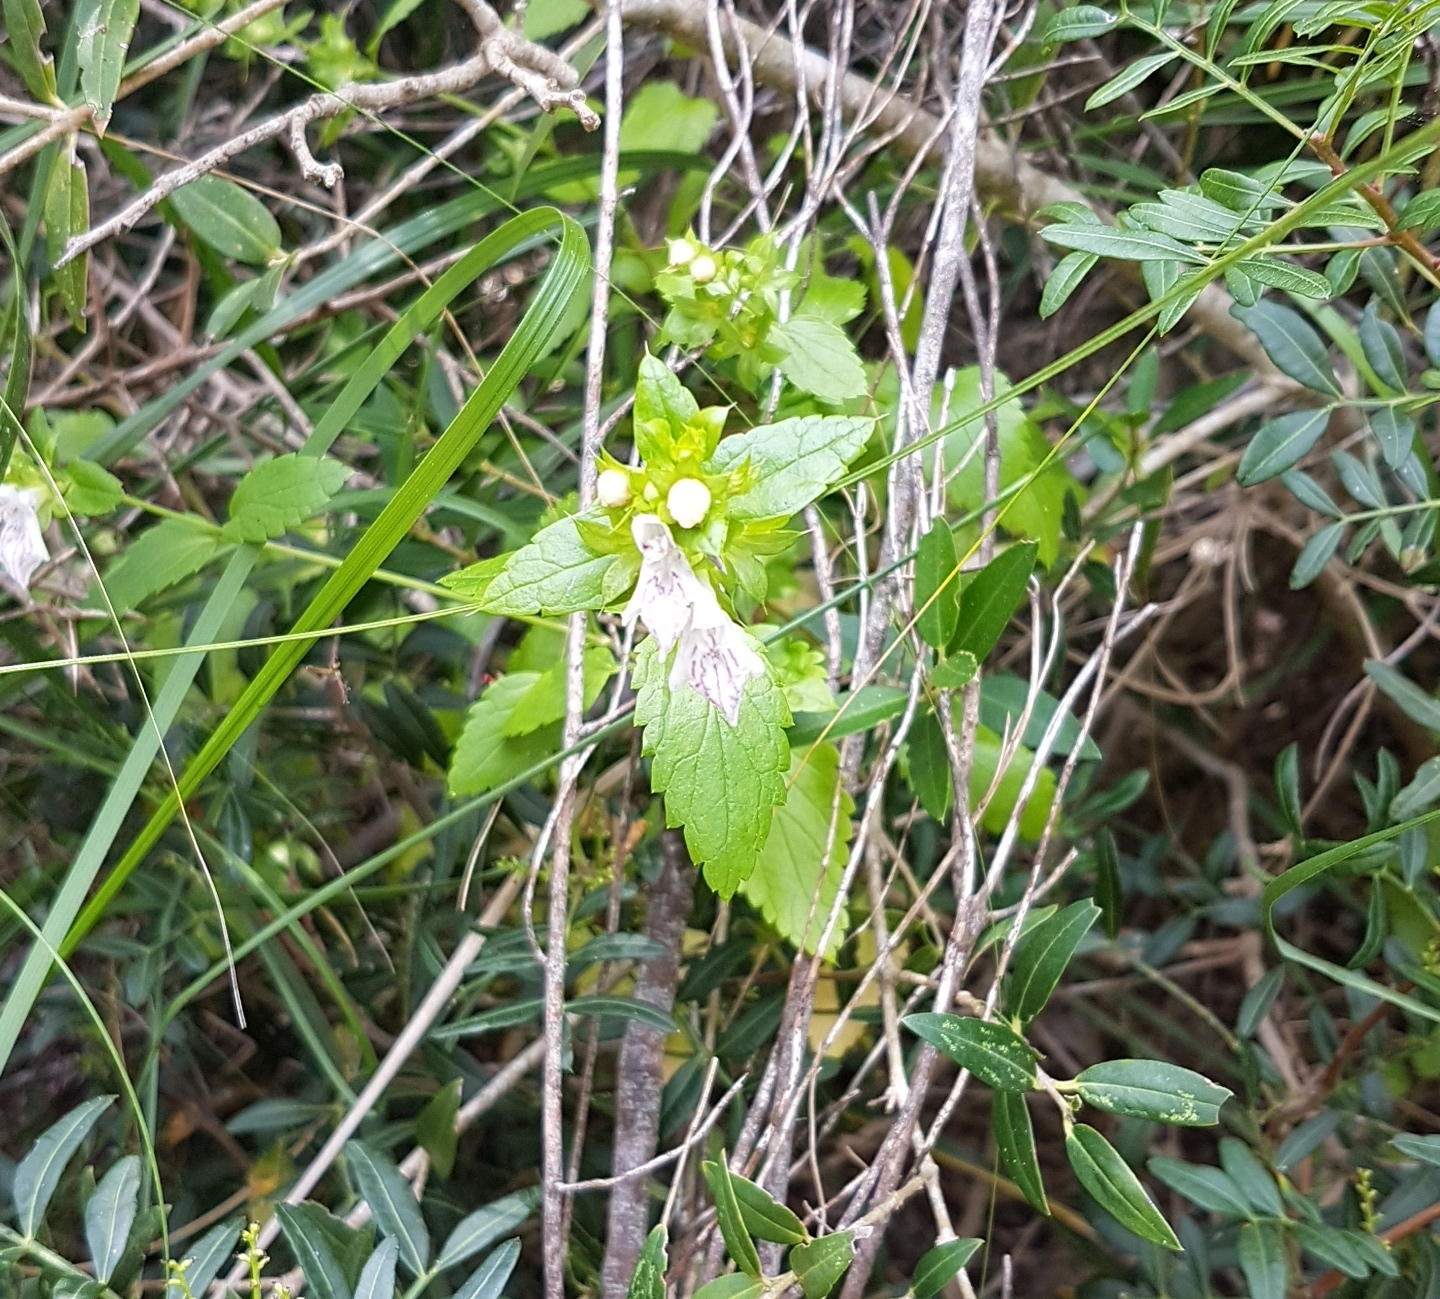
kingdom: Plantae
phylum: Tracheophyta
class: Magnoliopsida
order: Lamiales
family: Lamiaceae
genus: Prasium
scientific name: Prasium majus
